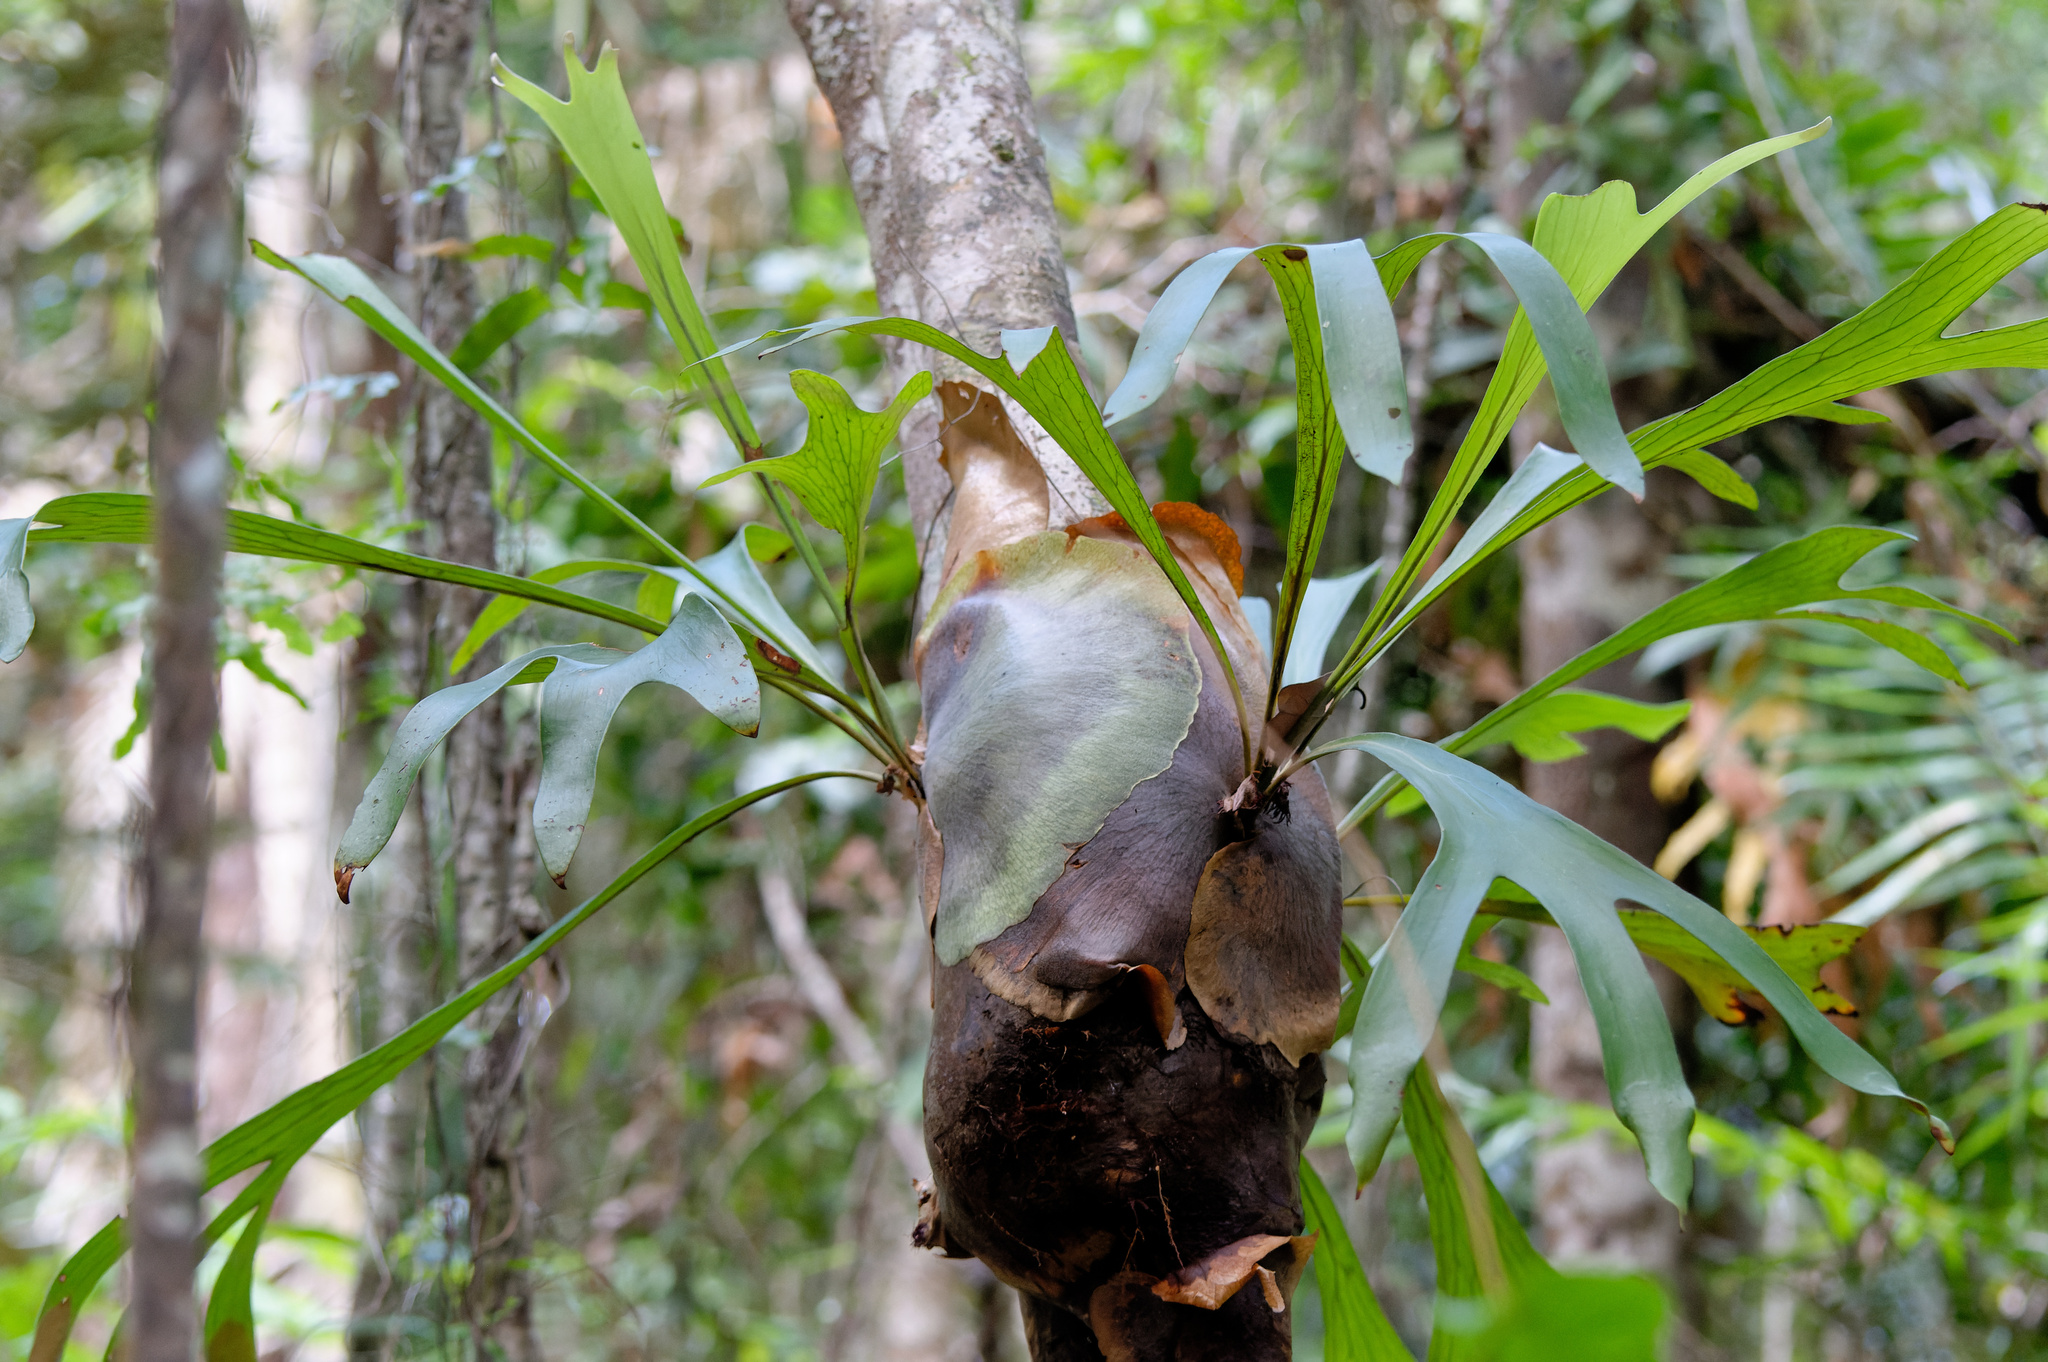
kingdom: Plantae
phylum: Tracheophyta
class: Polypodiopsida
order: Polypodiales
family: Polypodiaceae
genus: Platycerium
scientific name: Platycerium hillii
